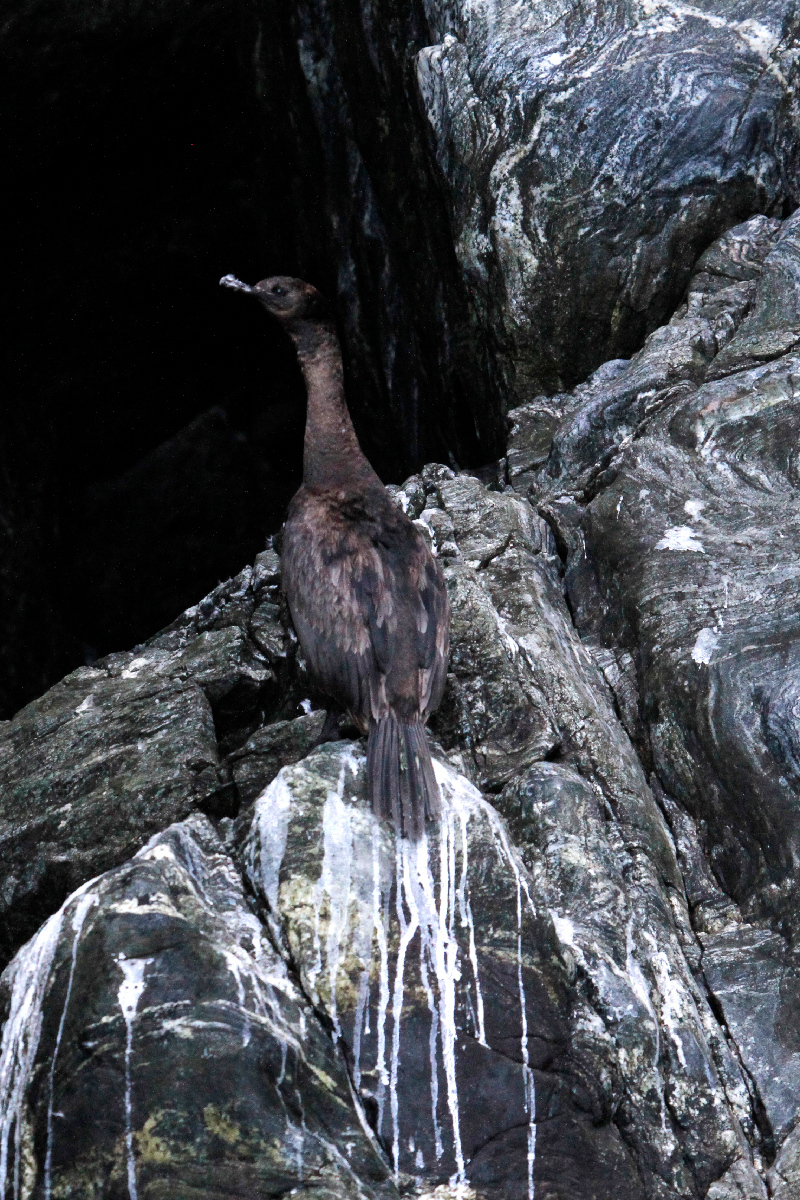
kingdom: Animalia
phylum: Chordata
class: Aves
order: Suliformes
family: Phalacrocoracidae
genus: Phalacrocorax
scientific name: Phalacrocorax pelagicus
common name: Pelagic cormorant
